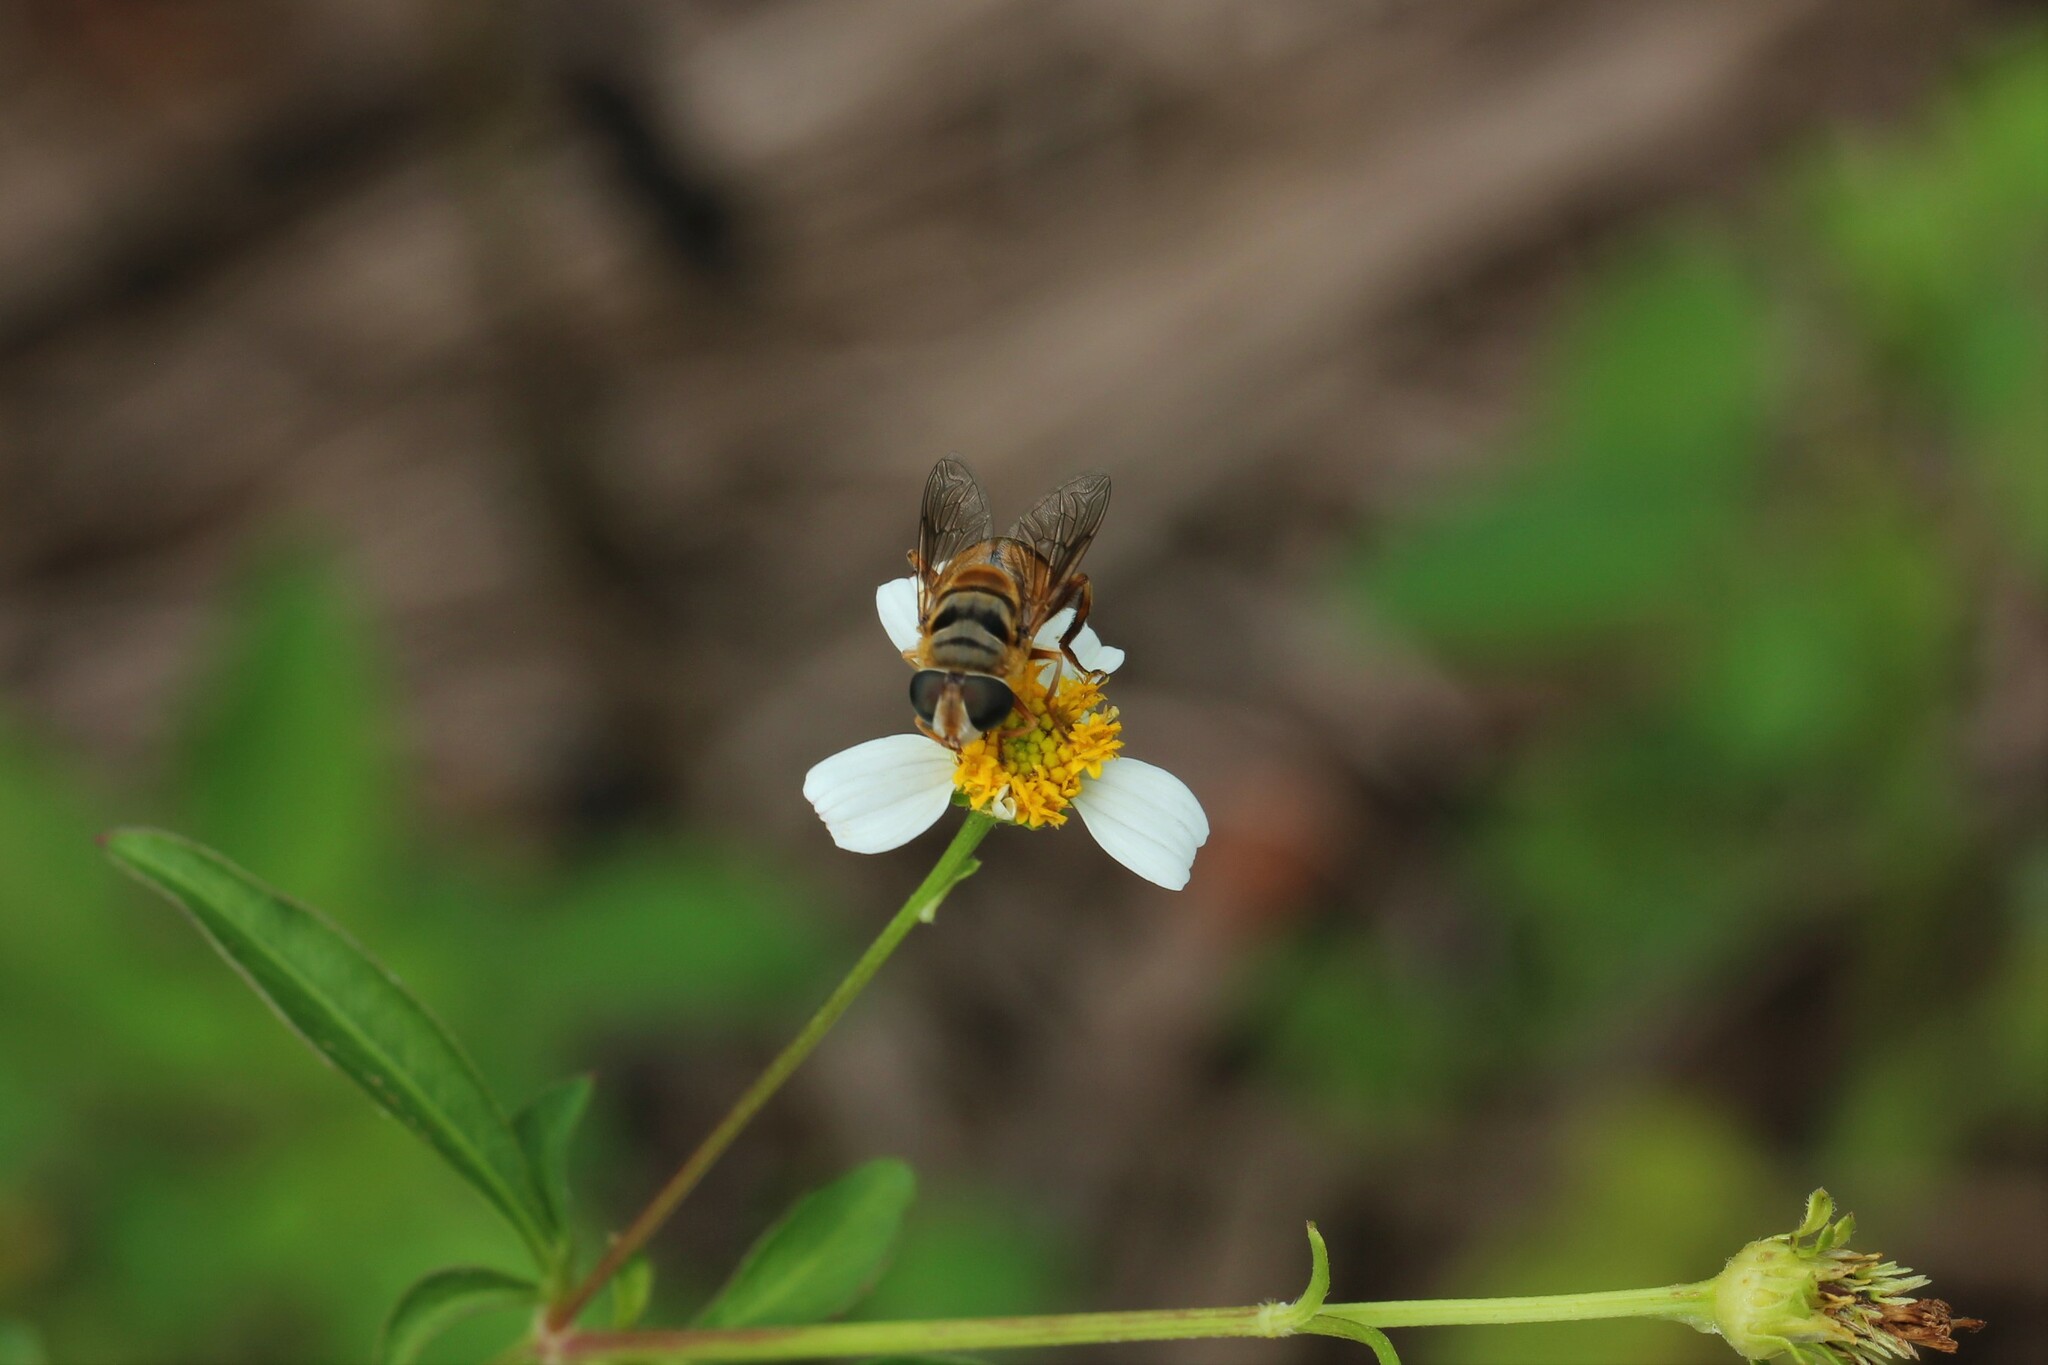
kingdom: Animalia
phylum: Arthropoda
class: Insecta
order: Diptera
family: Syrphidae
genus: Palpada
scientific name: Palpada vinetorum
